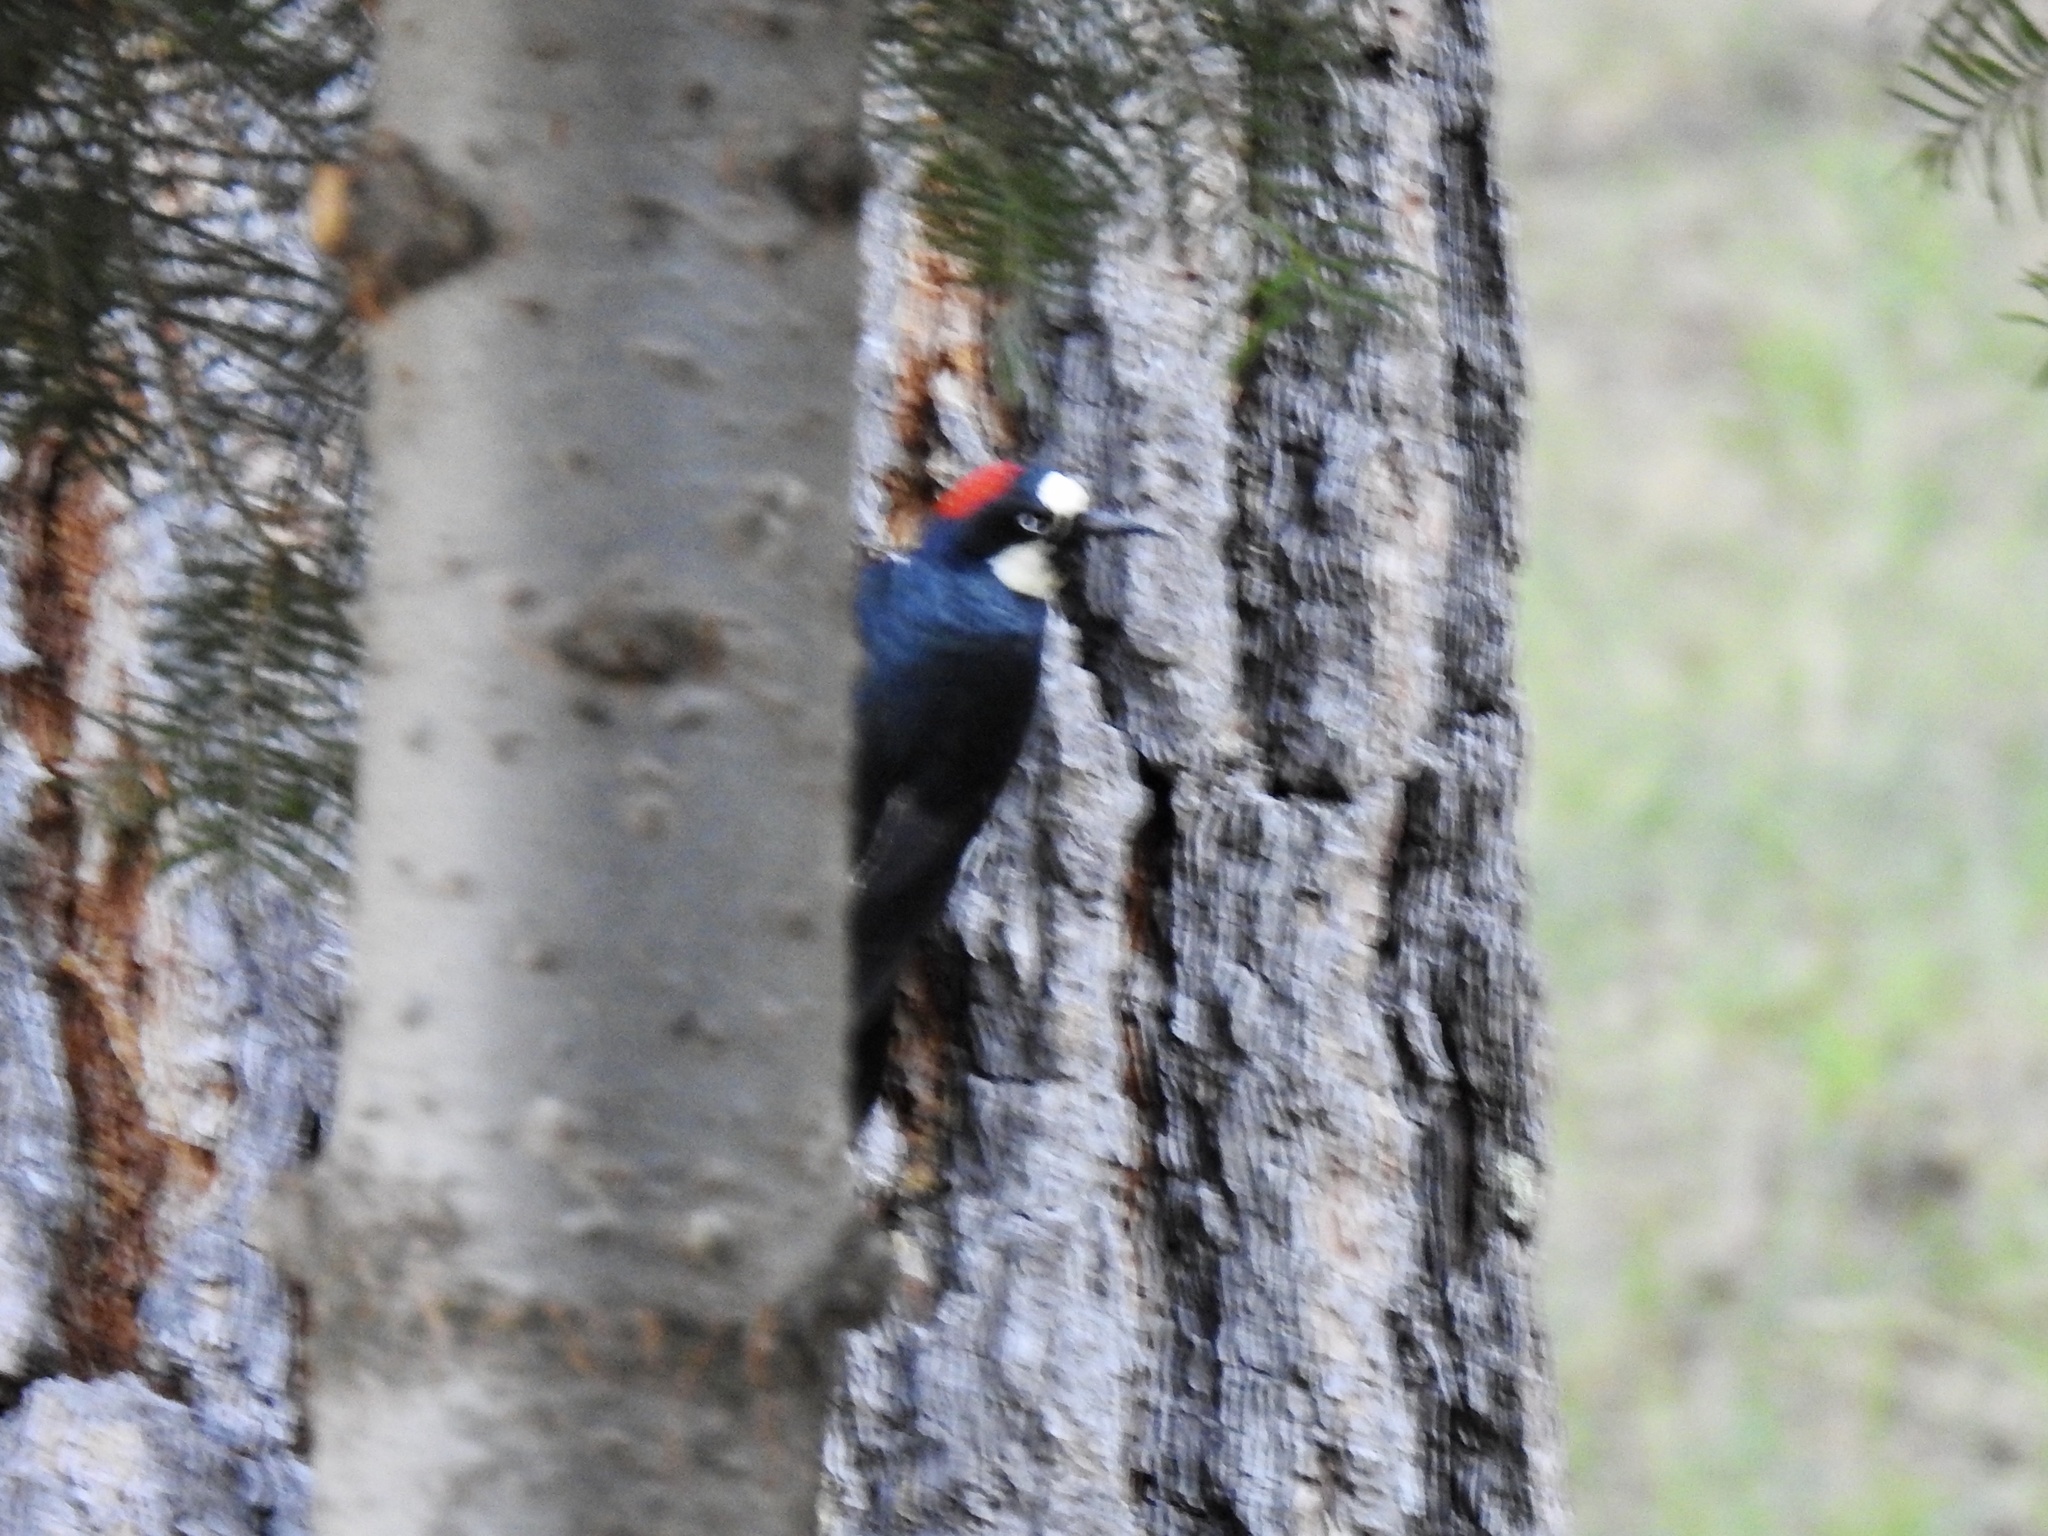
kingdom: Animalia
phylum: Chordata
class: Aves
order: Piciformes
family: Picidae
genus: Melanerpes
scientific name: Melanerpes formicivorus
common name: Acorn woodpecker
